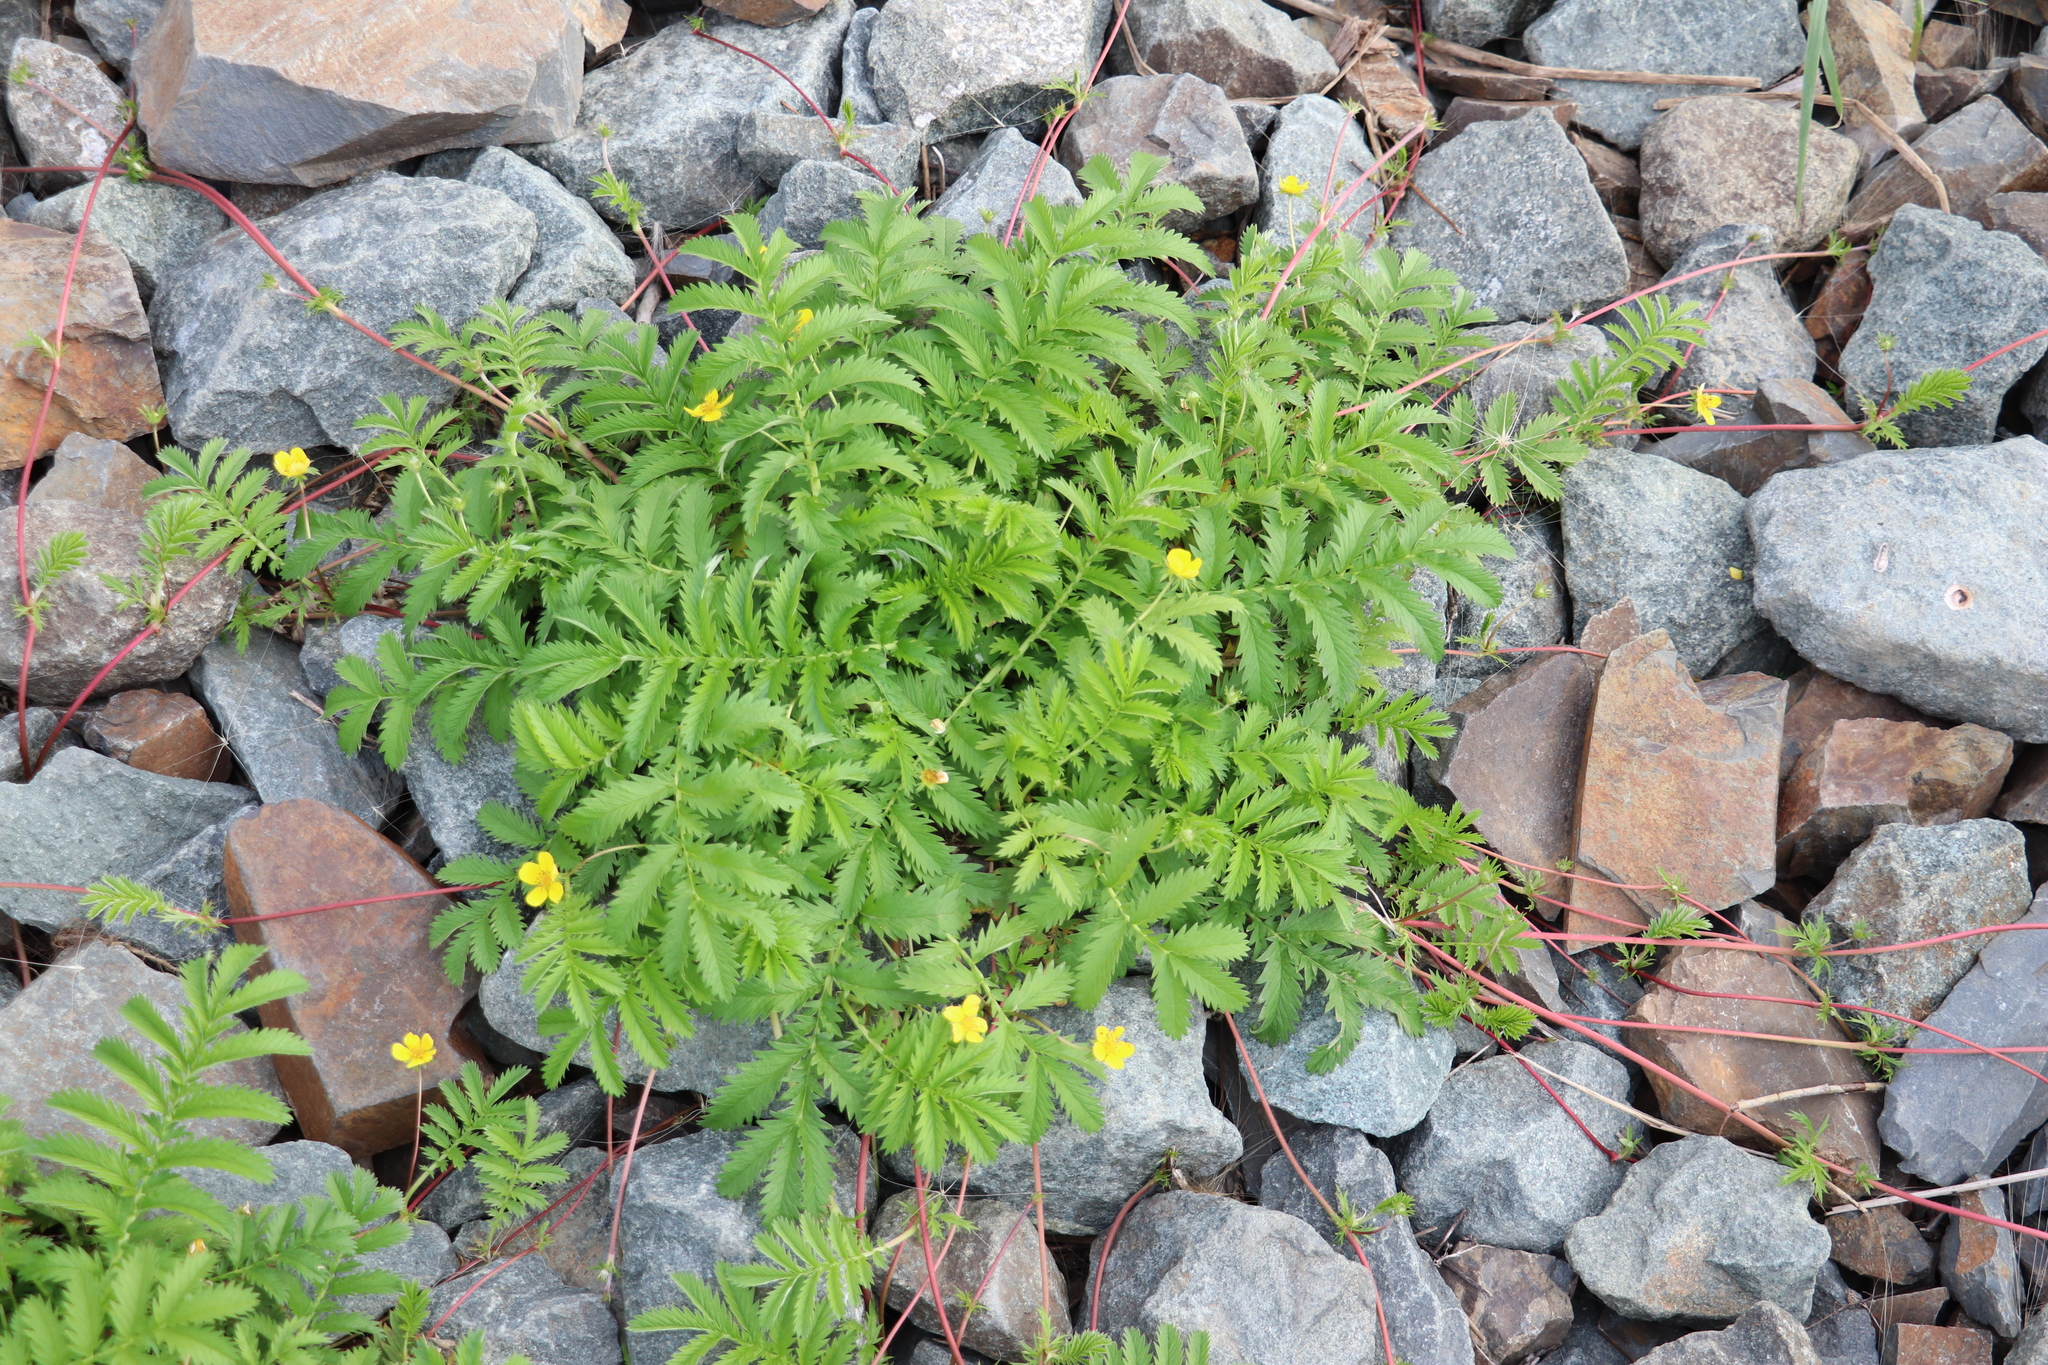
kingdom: Plantae
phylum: Tracheophyta
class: Magnoliopsida
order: Rosales
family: Rosaceae
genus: Argentina
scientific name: Argentina anserina
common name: Common silverweed
